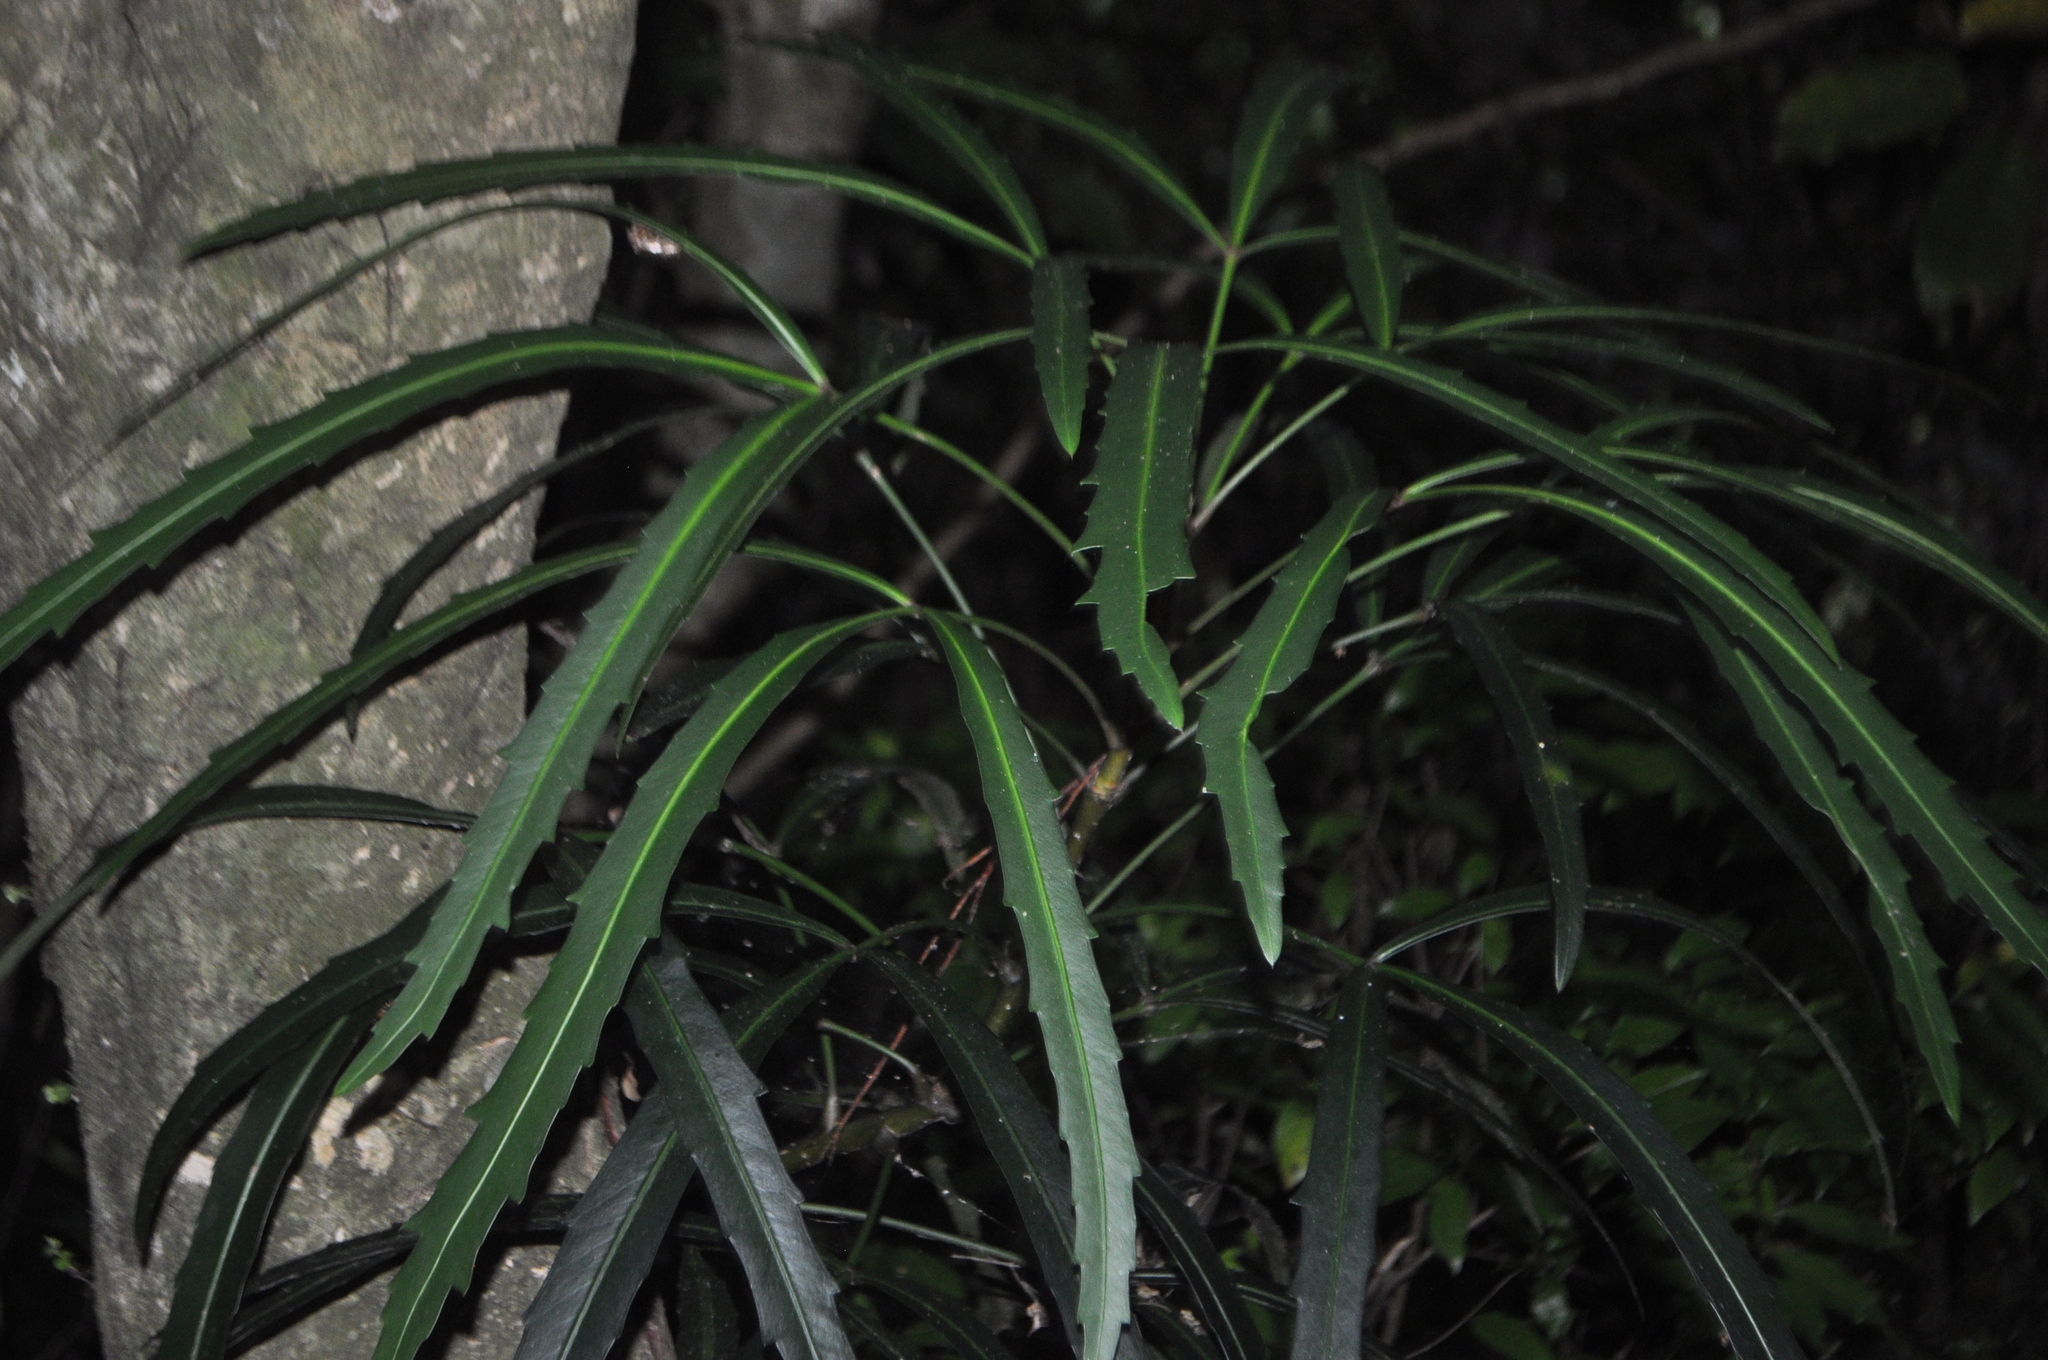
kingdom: Plantae
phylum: Tracheophyta
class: Magnoliopsida
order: Apiales
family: Araliaceae
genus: Pseudopanax
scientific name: Pseudopanax
